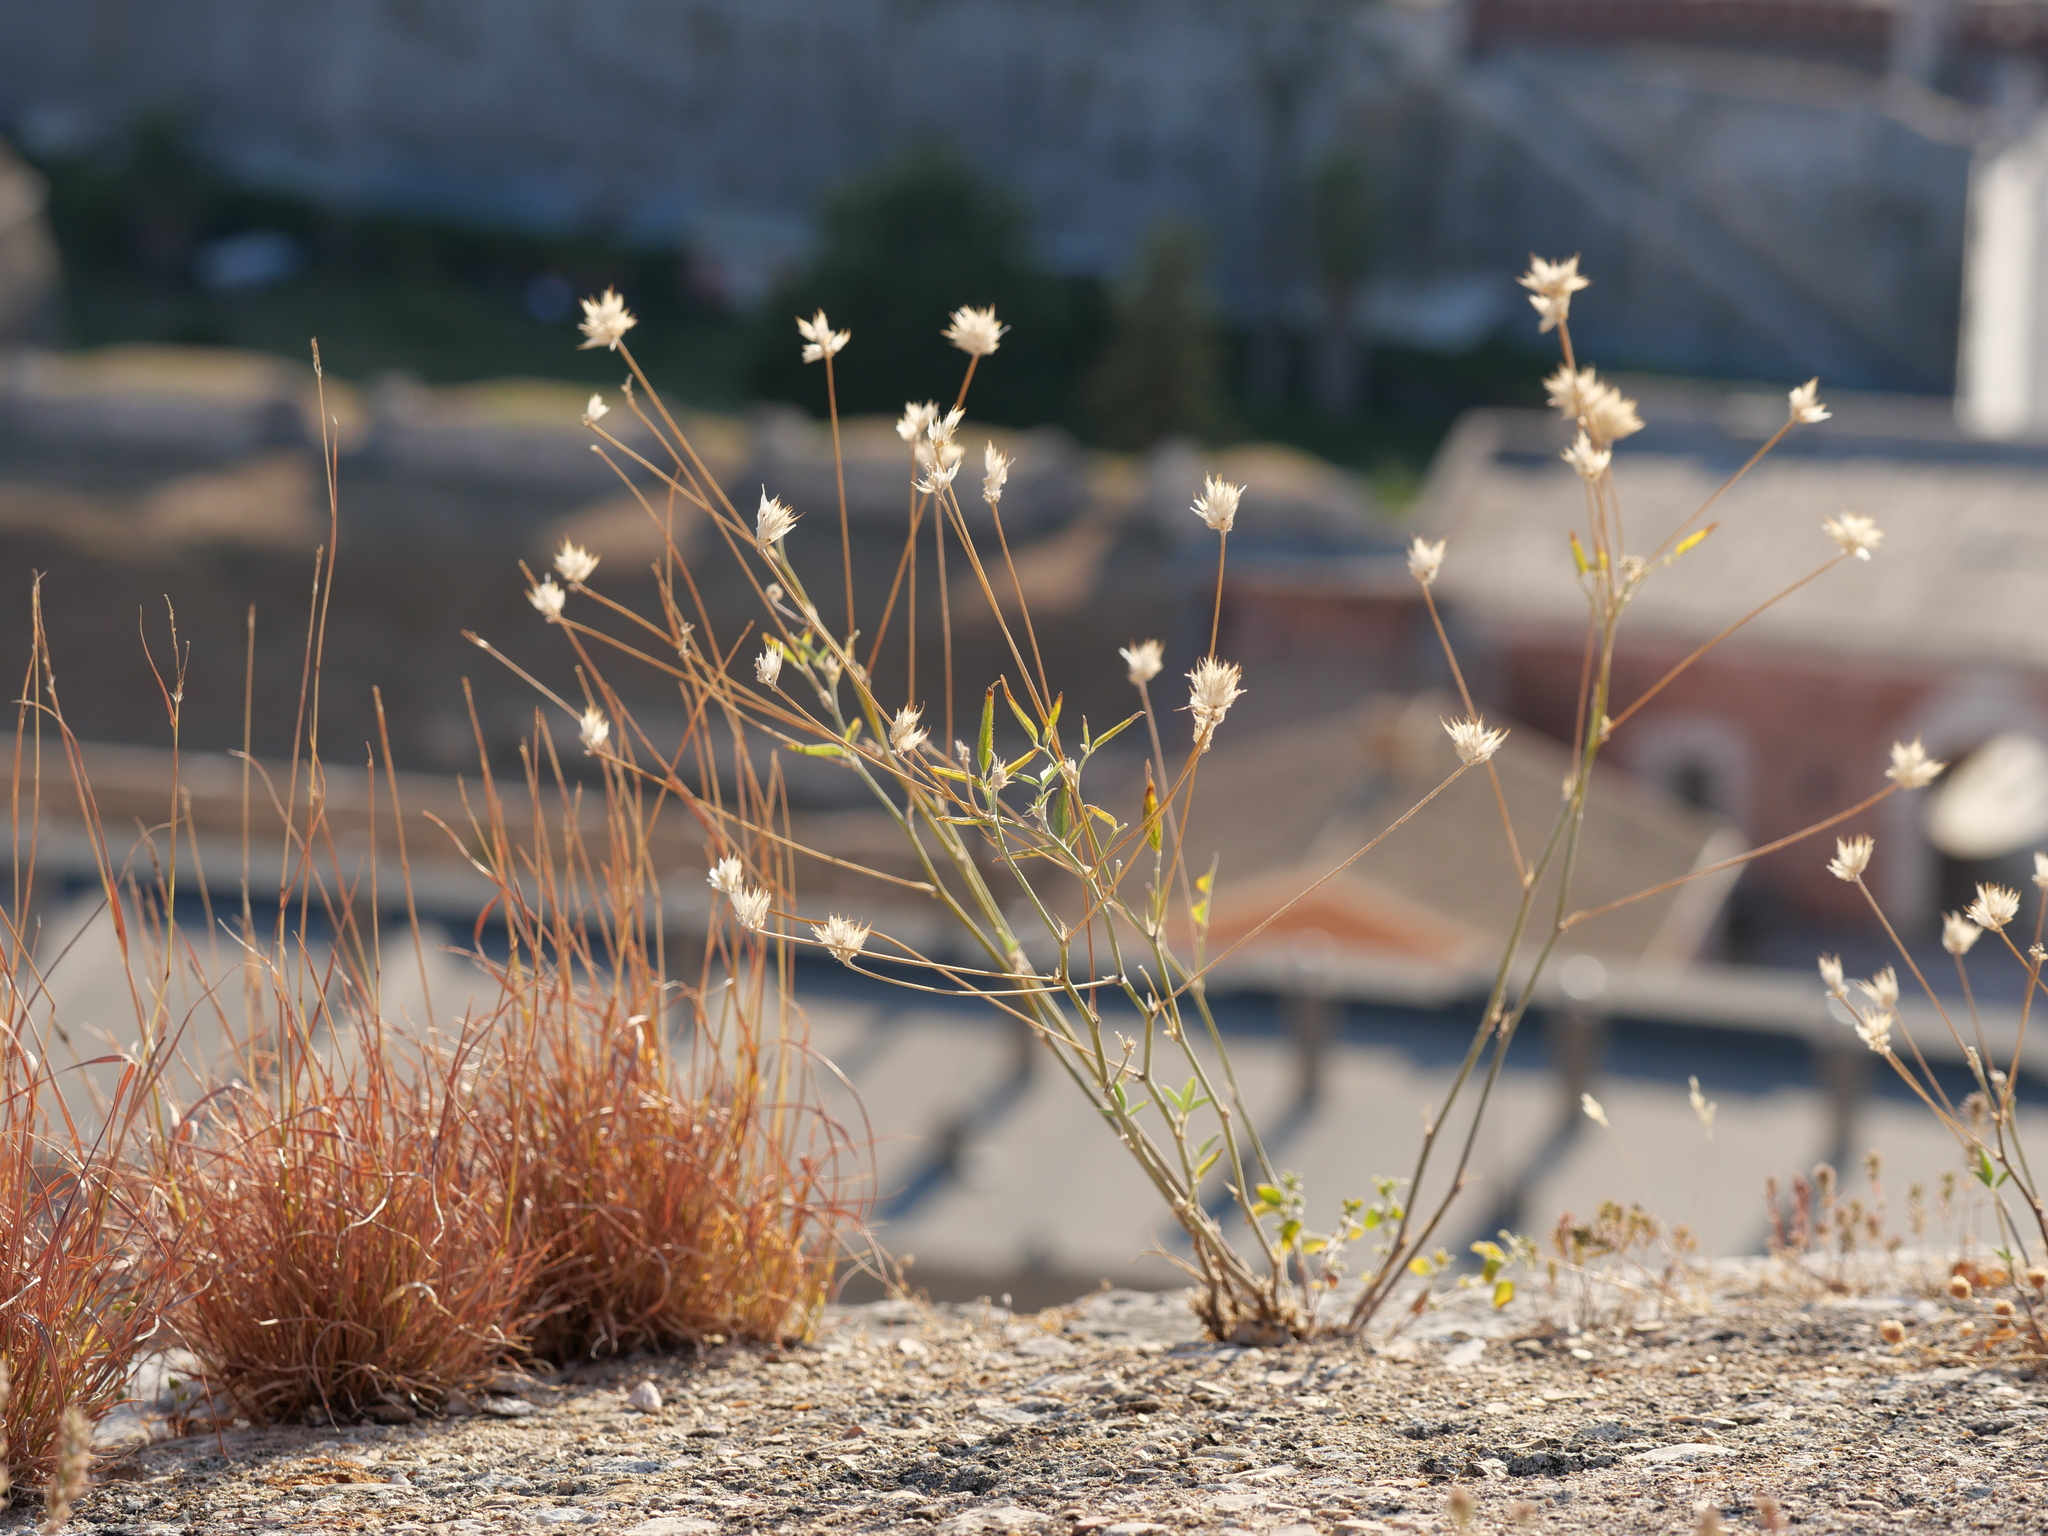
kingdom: Plantae
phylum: Tracheophyta
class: Magnoliopsida
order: Fabales
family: Fabaceae
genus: Bituminaria
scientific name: Bituminaria bituminosa
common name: Arabian pea
